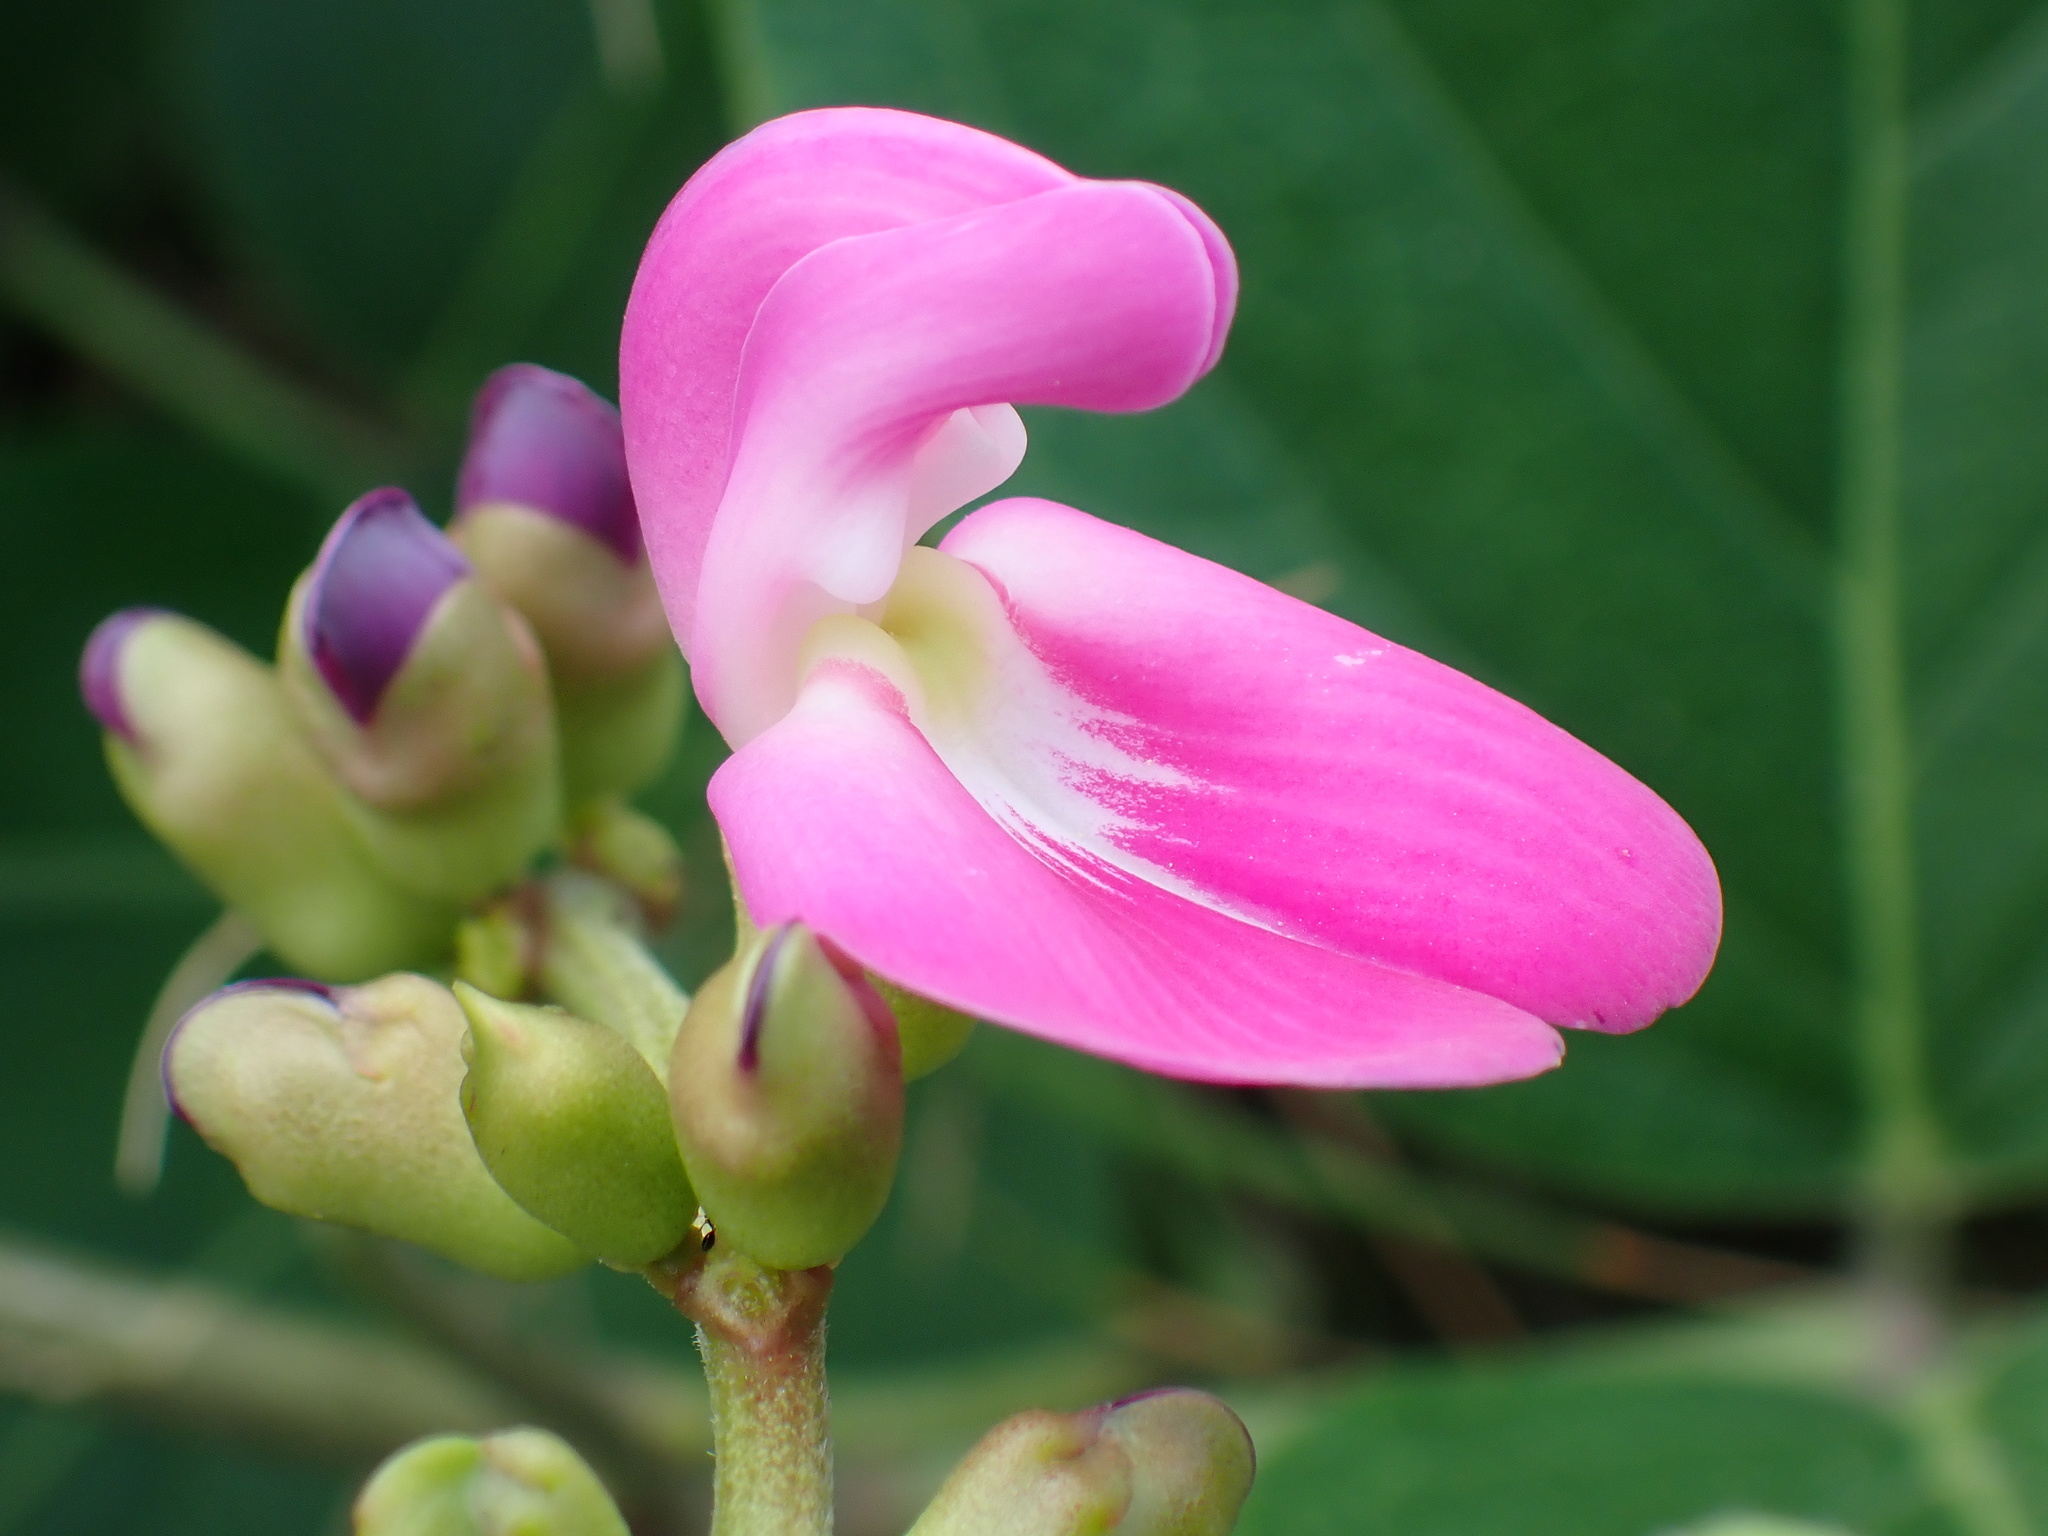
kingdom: Plantae
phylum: Tracheophyta
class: Magnoliopsida
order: Fabales
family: Fabaceae
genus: Canavalia
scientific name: Canavalia rosea
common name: Beach-bean
